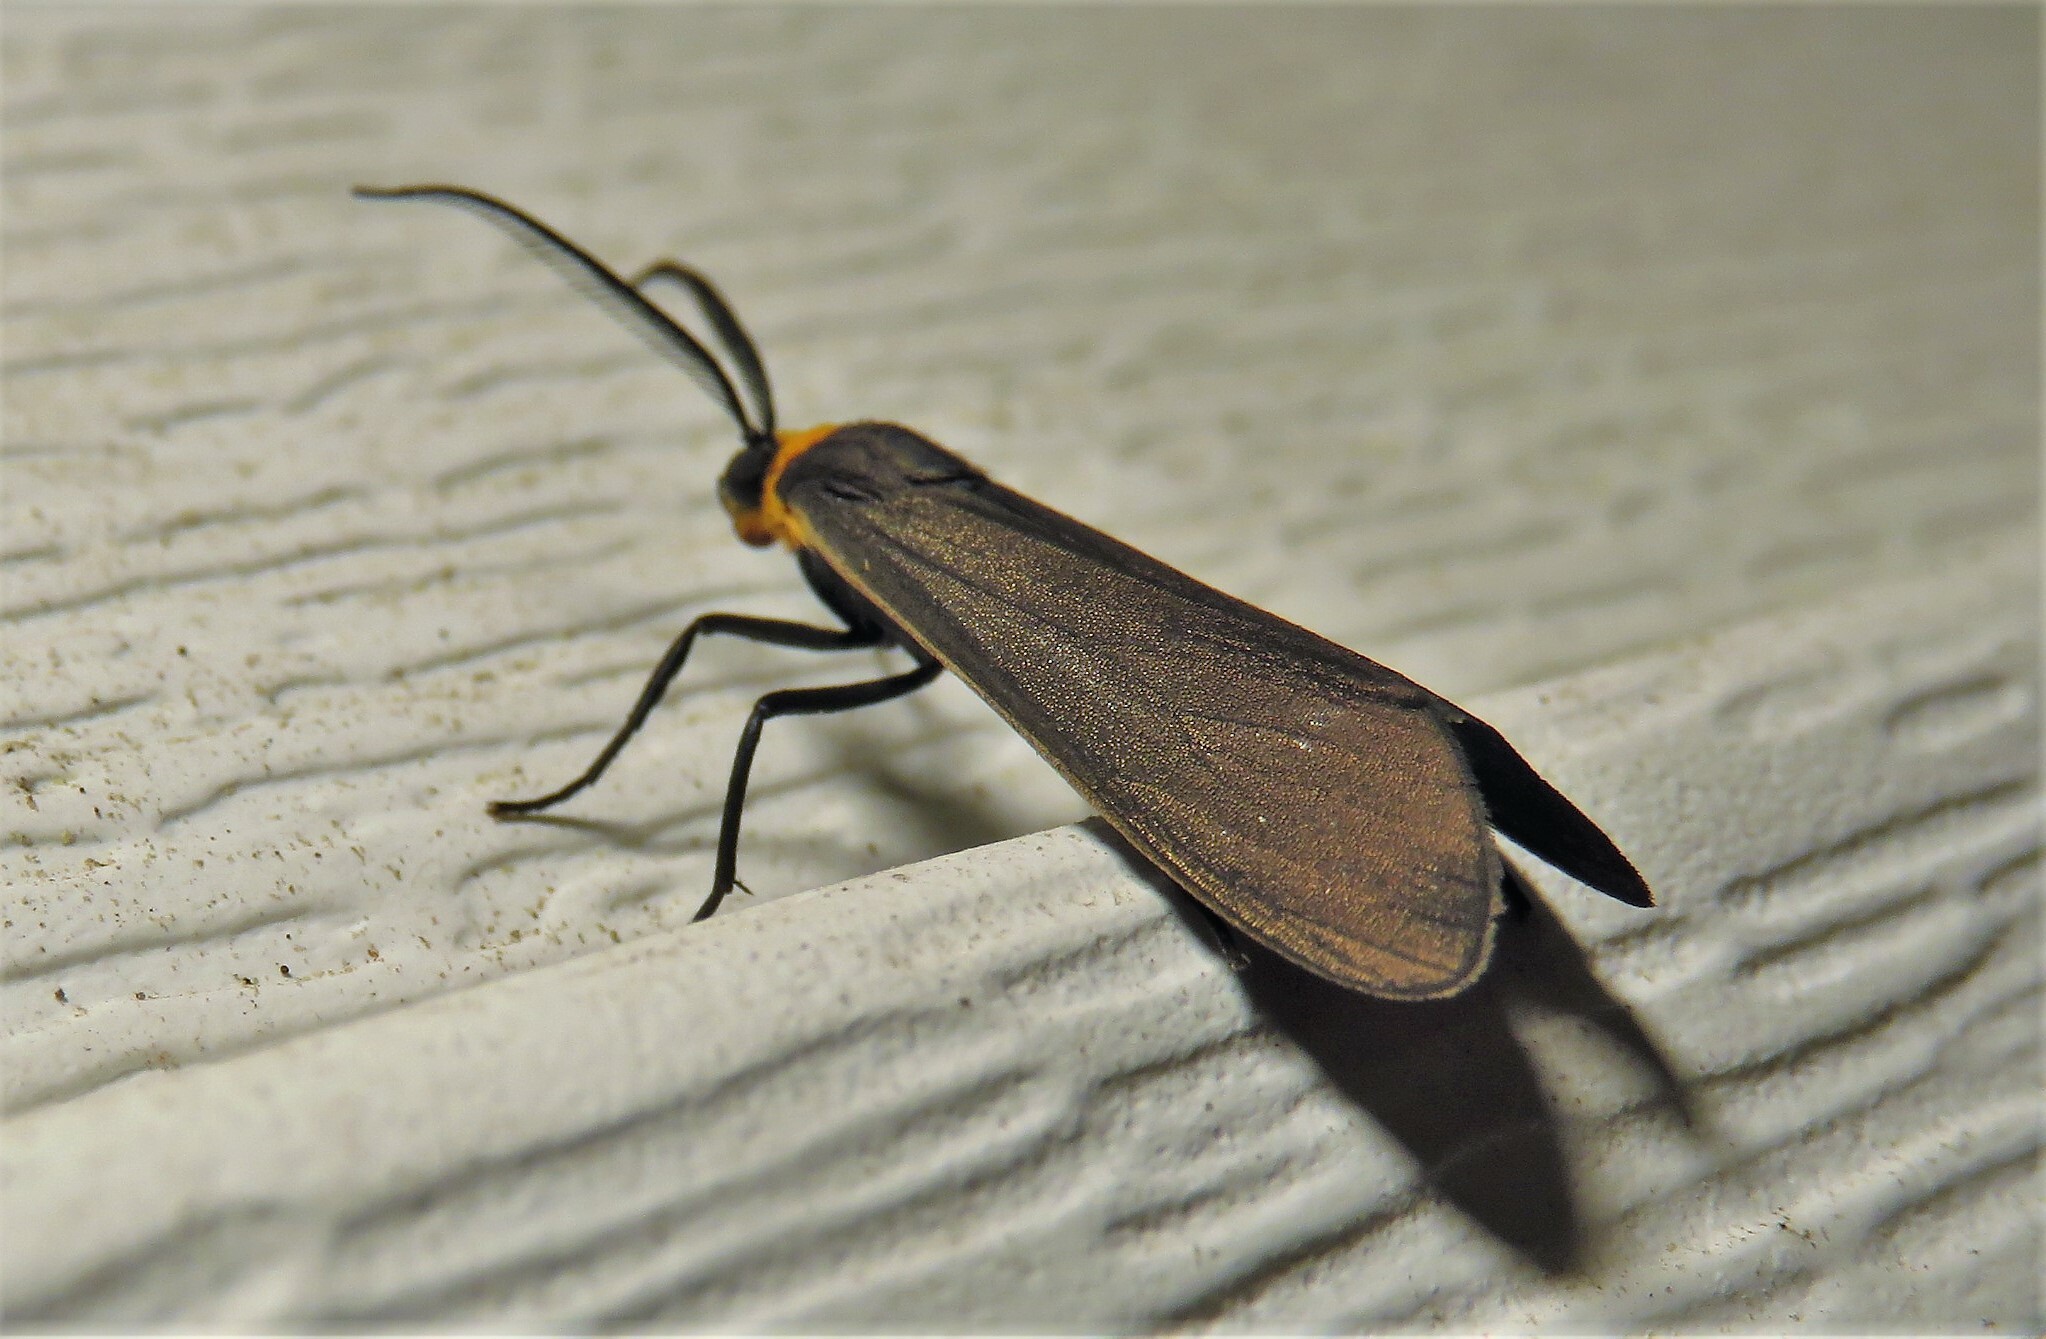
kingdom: Animalia
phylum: Arthropoda
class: Insecta
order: Lepidoptera
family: Erebidae
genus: Cisseps
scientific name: Cisseps fulvicollis
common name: Yellow-collared scape moth
